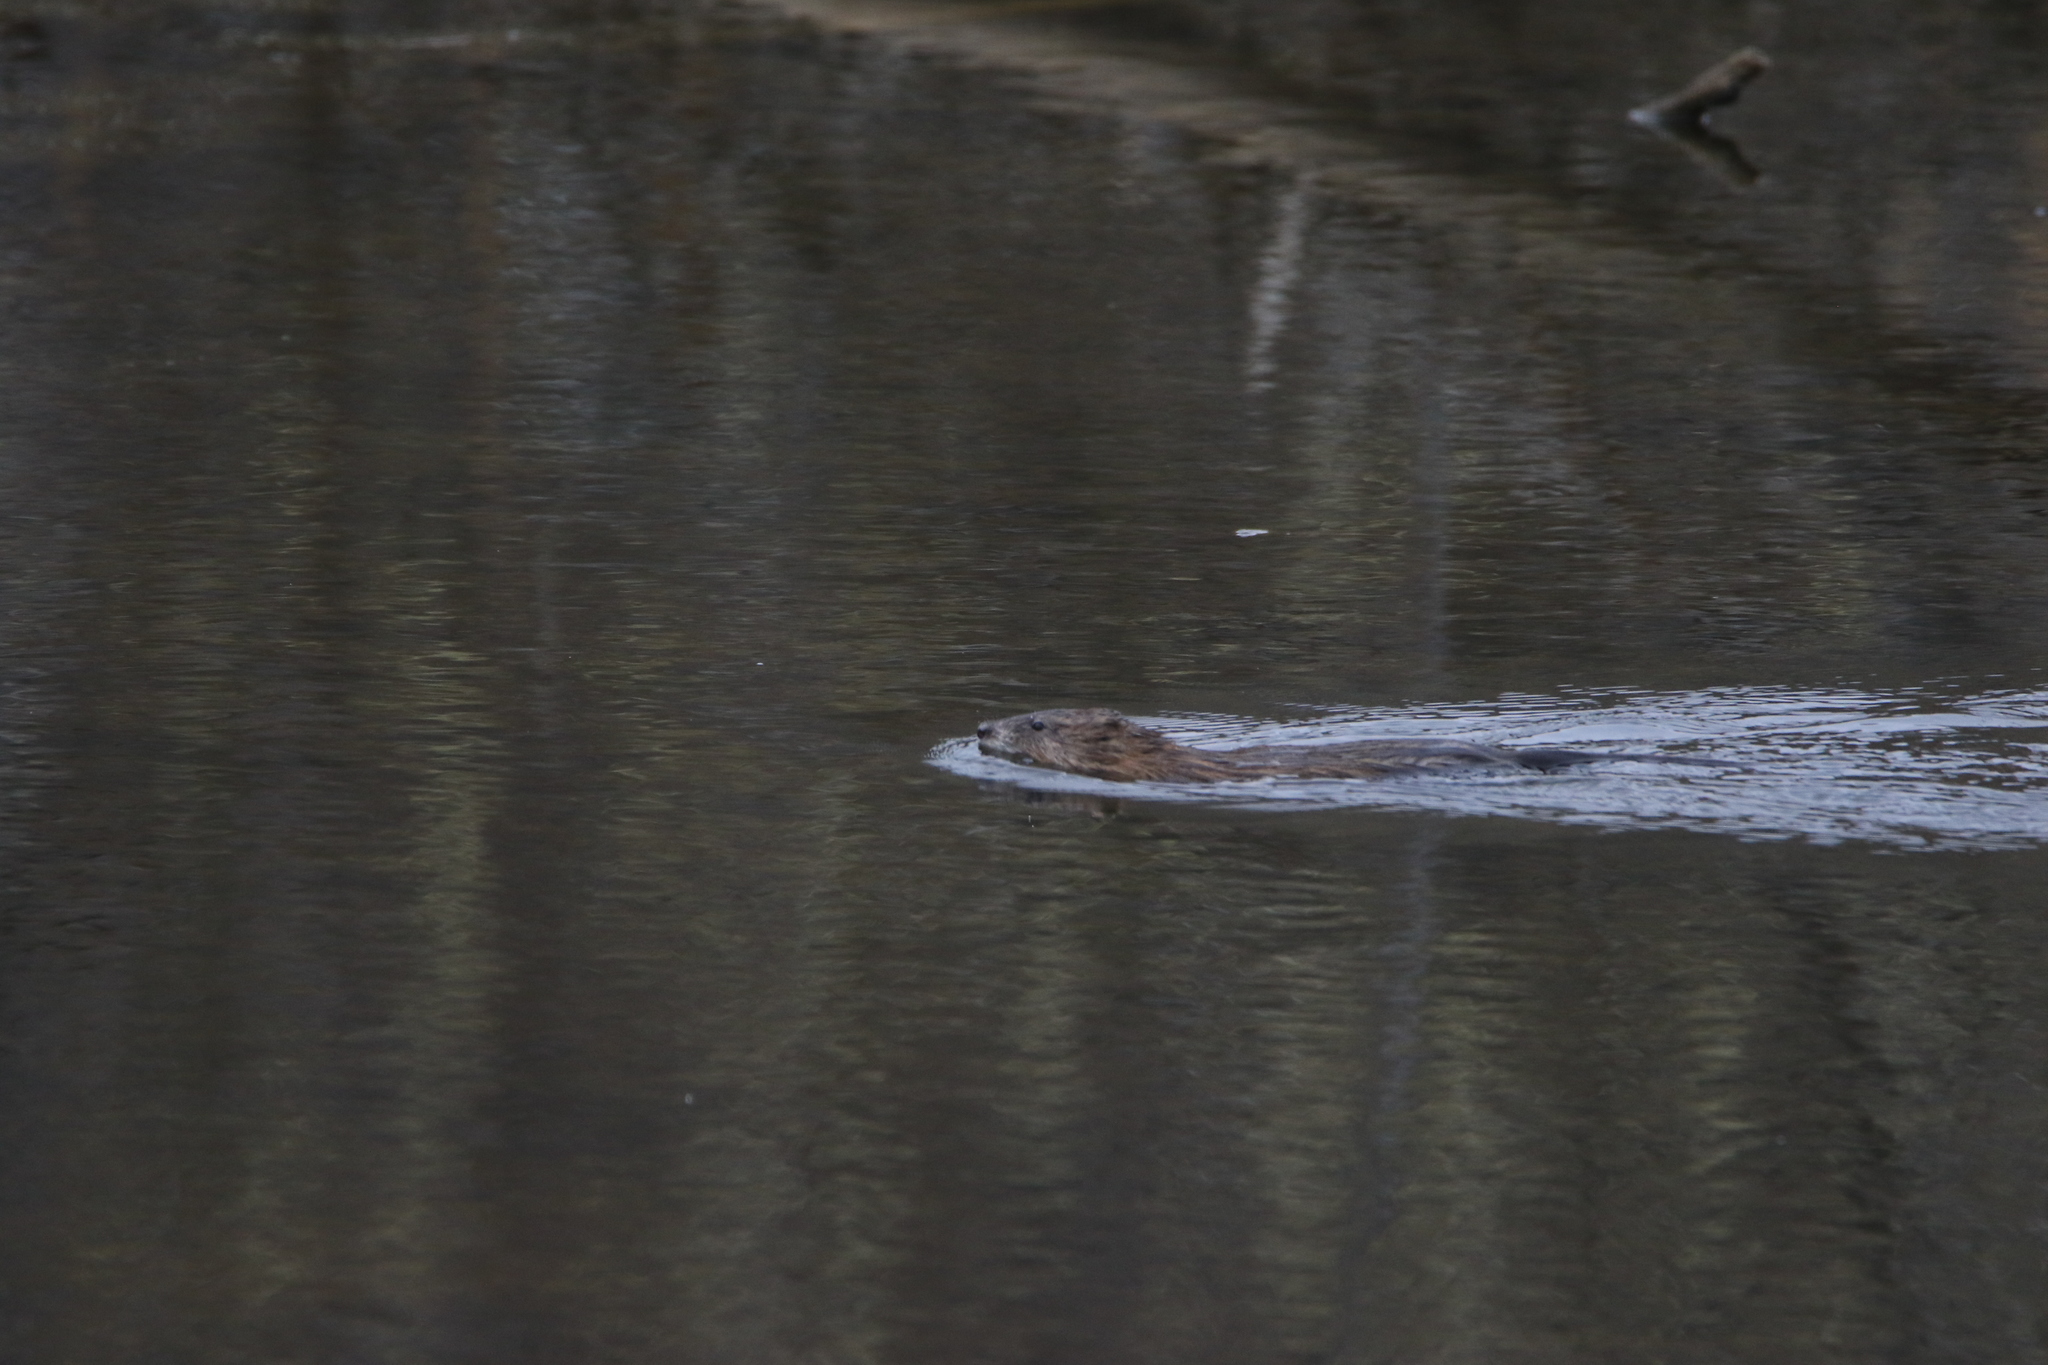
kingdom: Animalia
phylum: Chordata
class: Mammalia
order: Rodentia
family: Cricetidae
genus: Ondatra
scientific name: Ondatra zibethicus
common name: Muskrat
